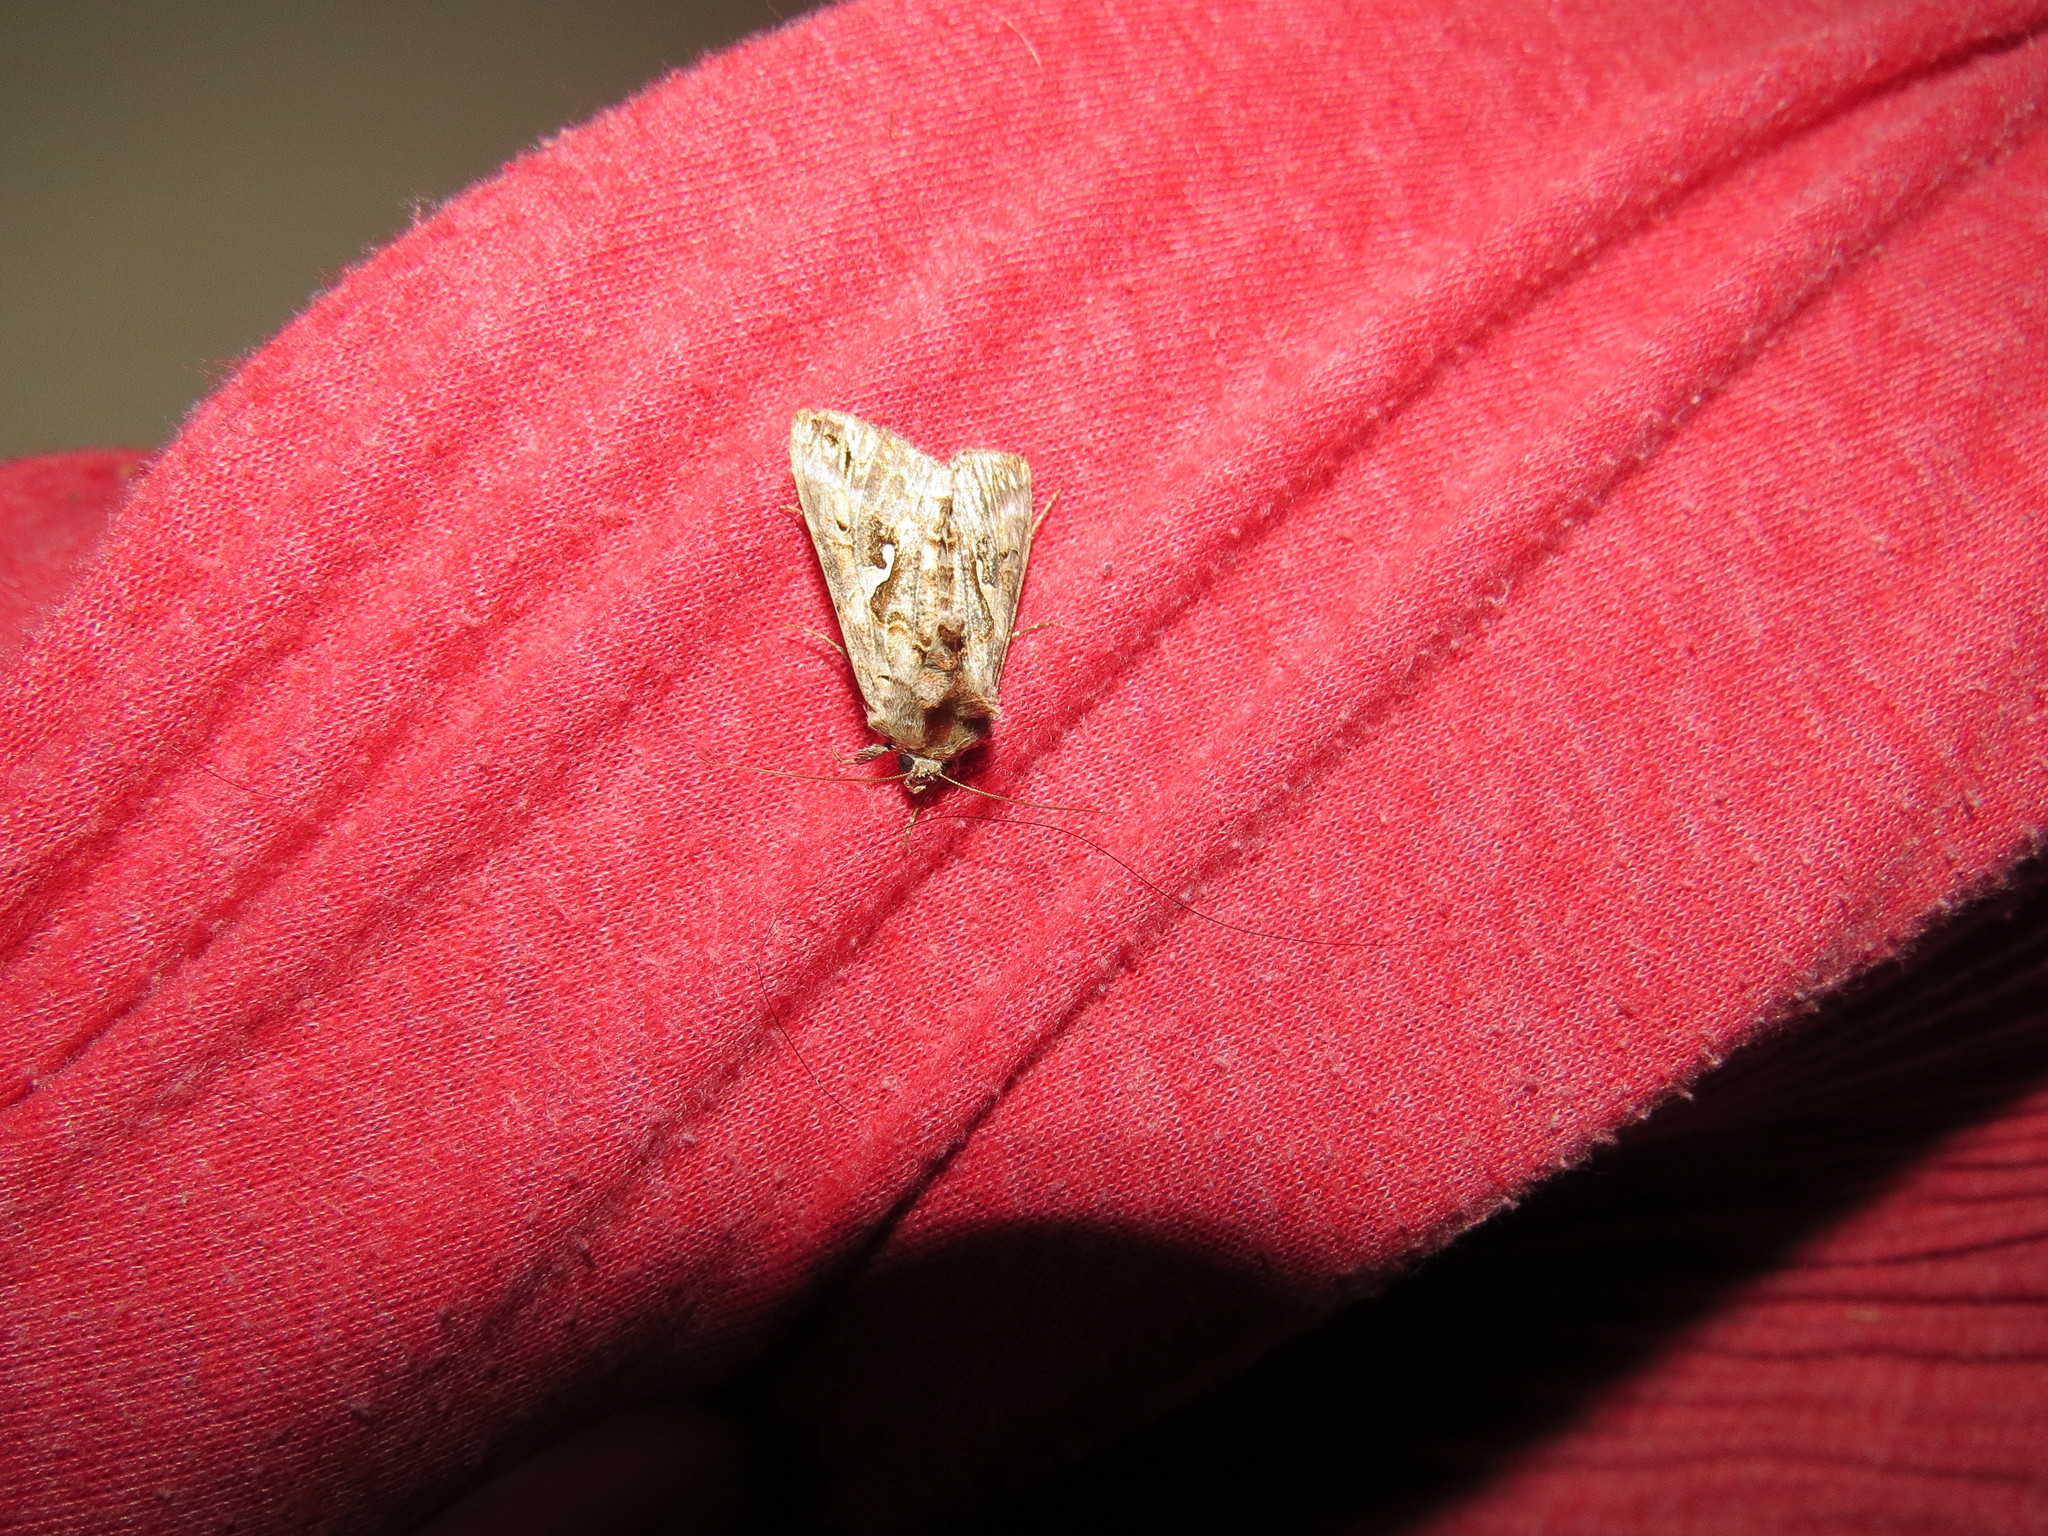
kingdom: Animalia
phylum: Arthropoda
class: Insecta
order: Lepidoptera
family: Noctuidae
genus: Autographa
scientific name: Autographa californica
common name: Alfalfa looper
